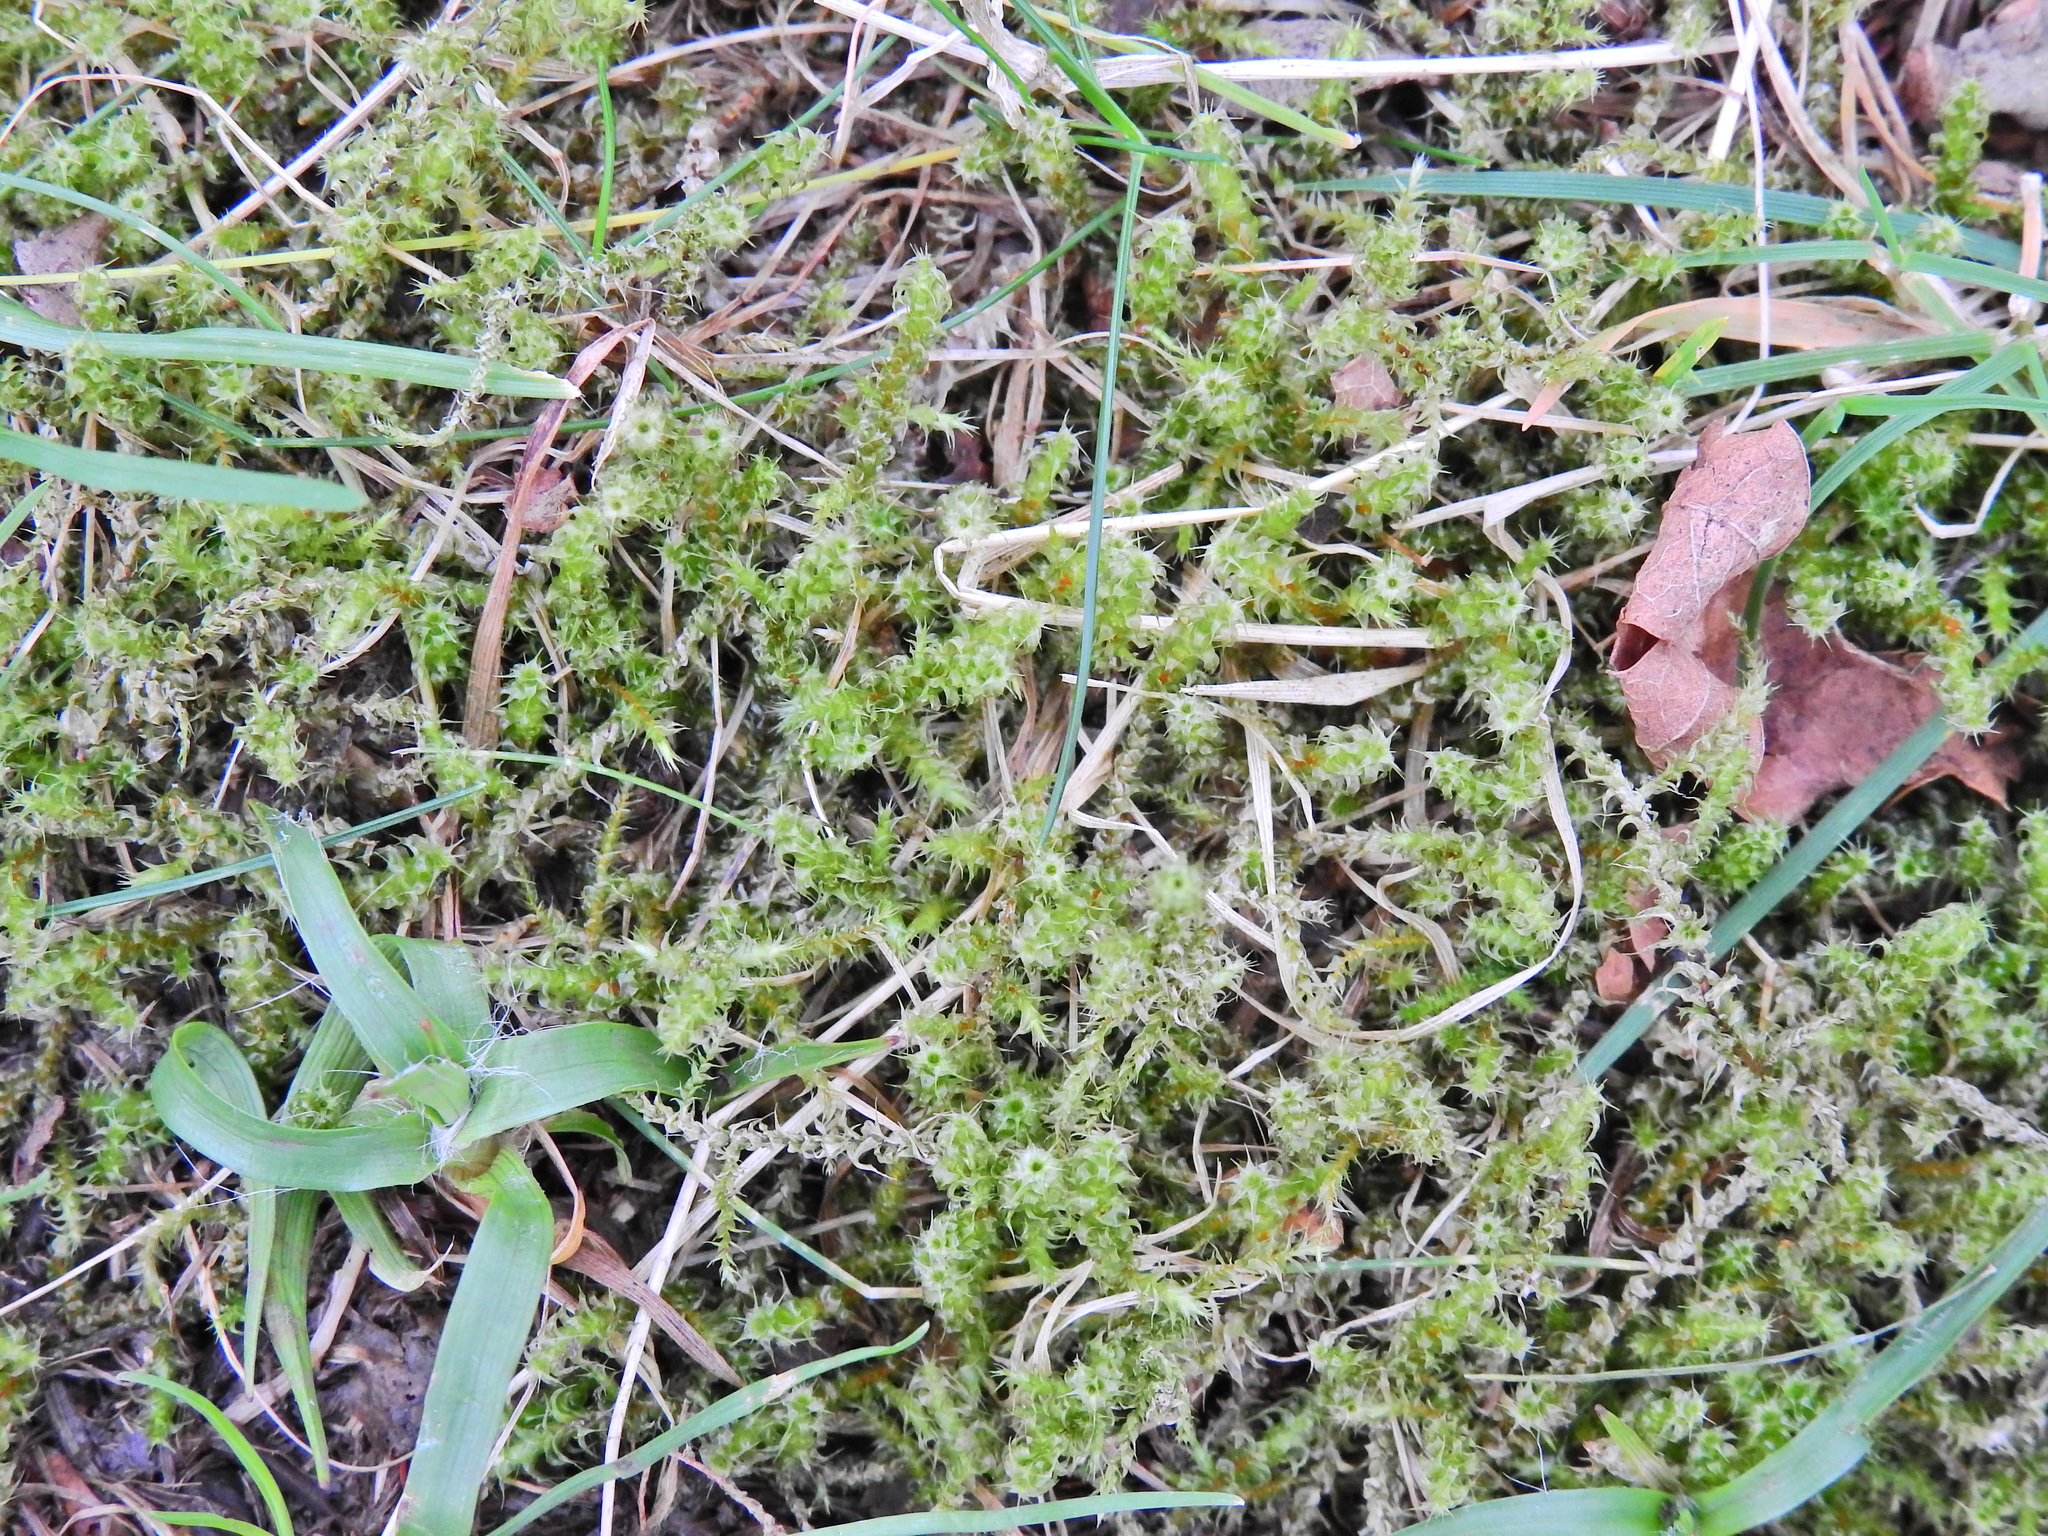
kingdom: Plantae
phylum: Bryophyta
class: Bryopsida
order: Hypnales
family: Hylocomiaceae
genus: Rhytidiadelphus
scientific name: Rhytidiadelphus squarrosus
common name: Springy turf-moss
